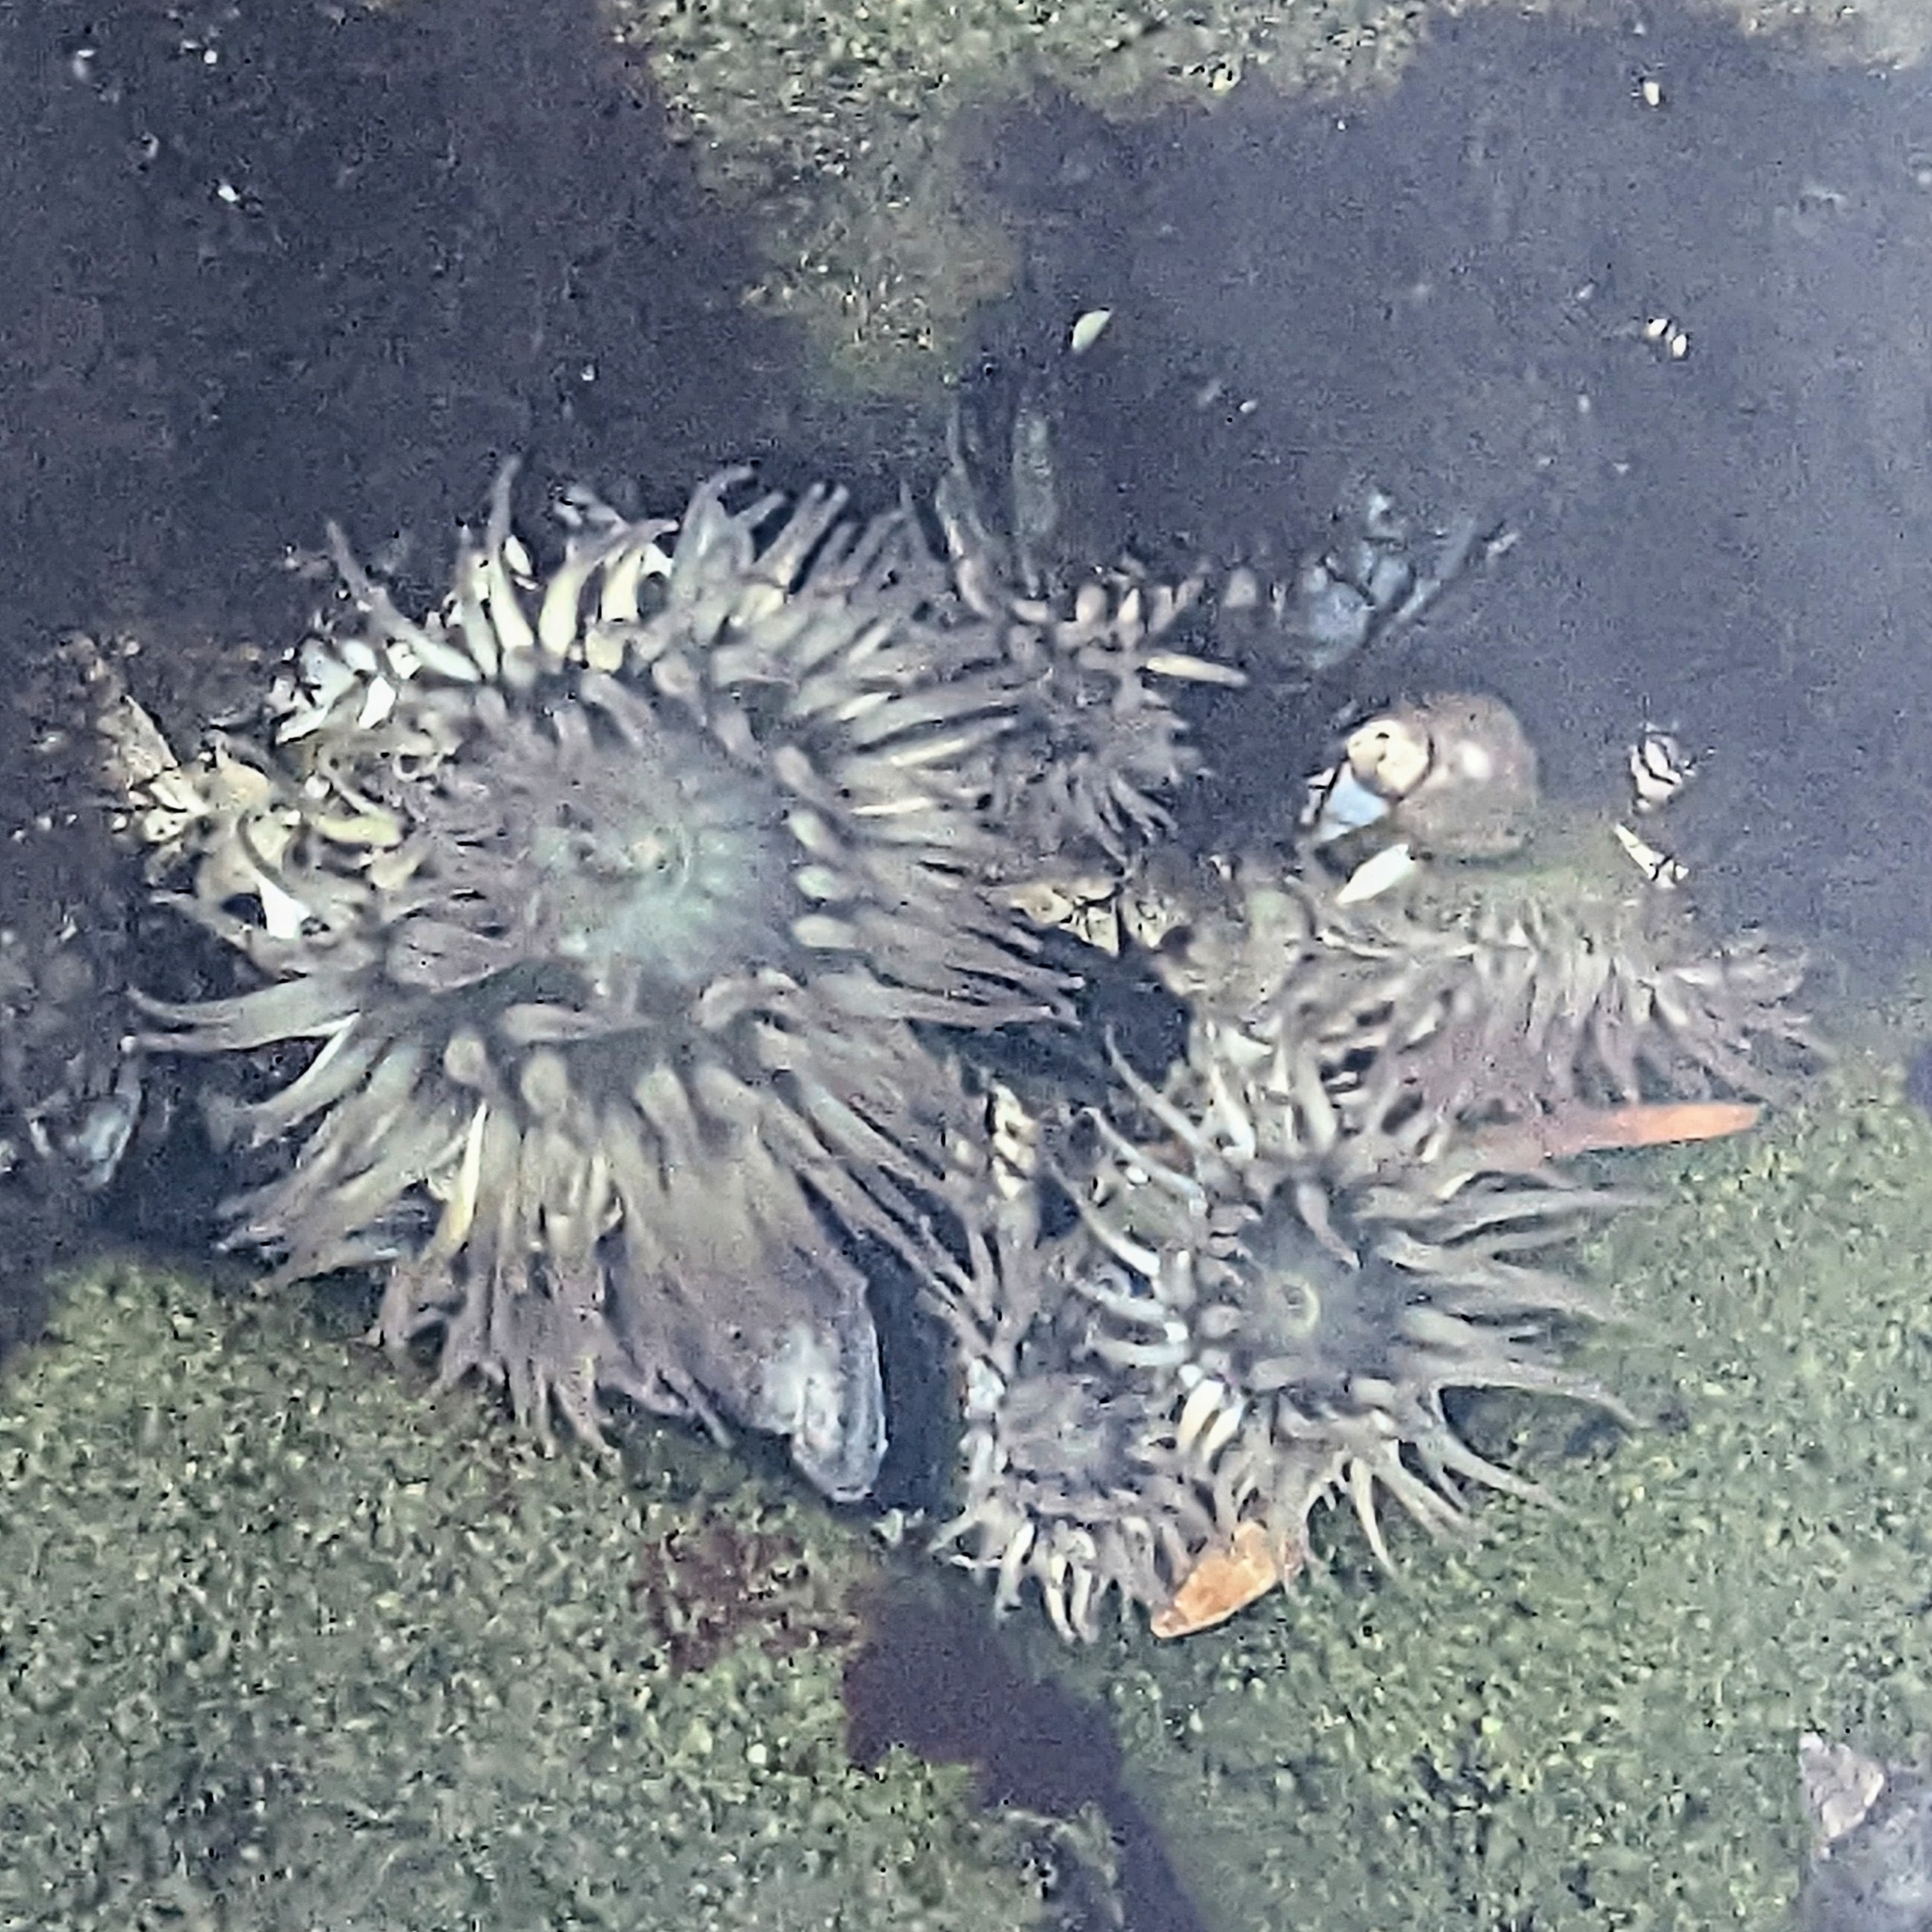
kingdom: Animalia
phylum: Cnidaria
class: Anthozoa
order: Actiniaria
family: Actiniidae
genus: Anthopleura
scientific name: Anthopleura elegantissima
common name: Clonal anemone
